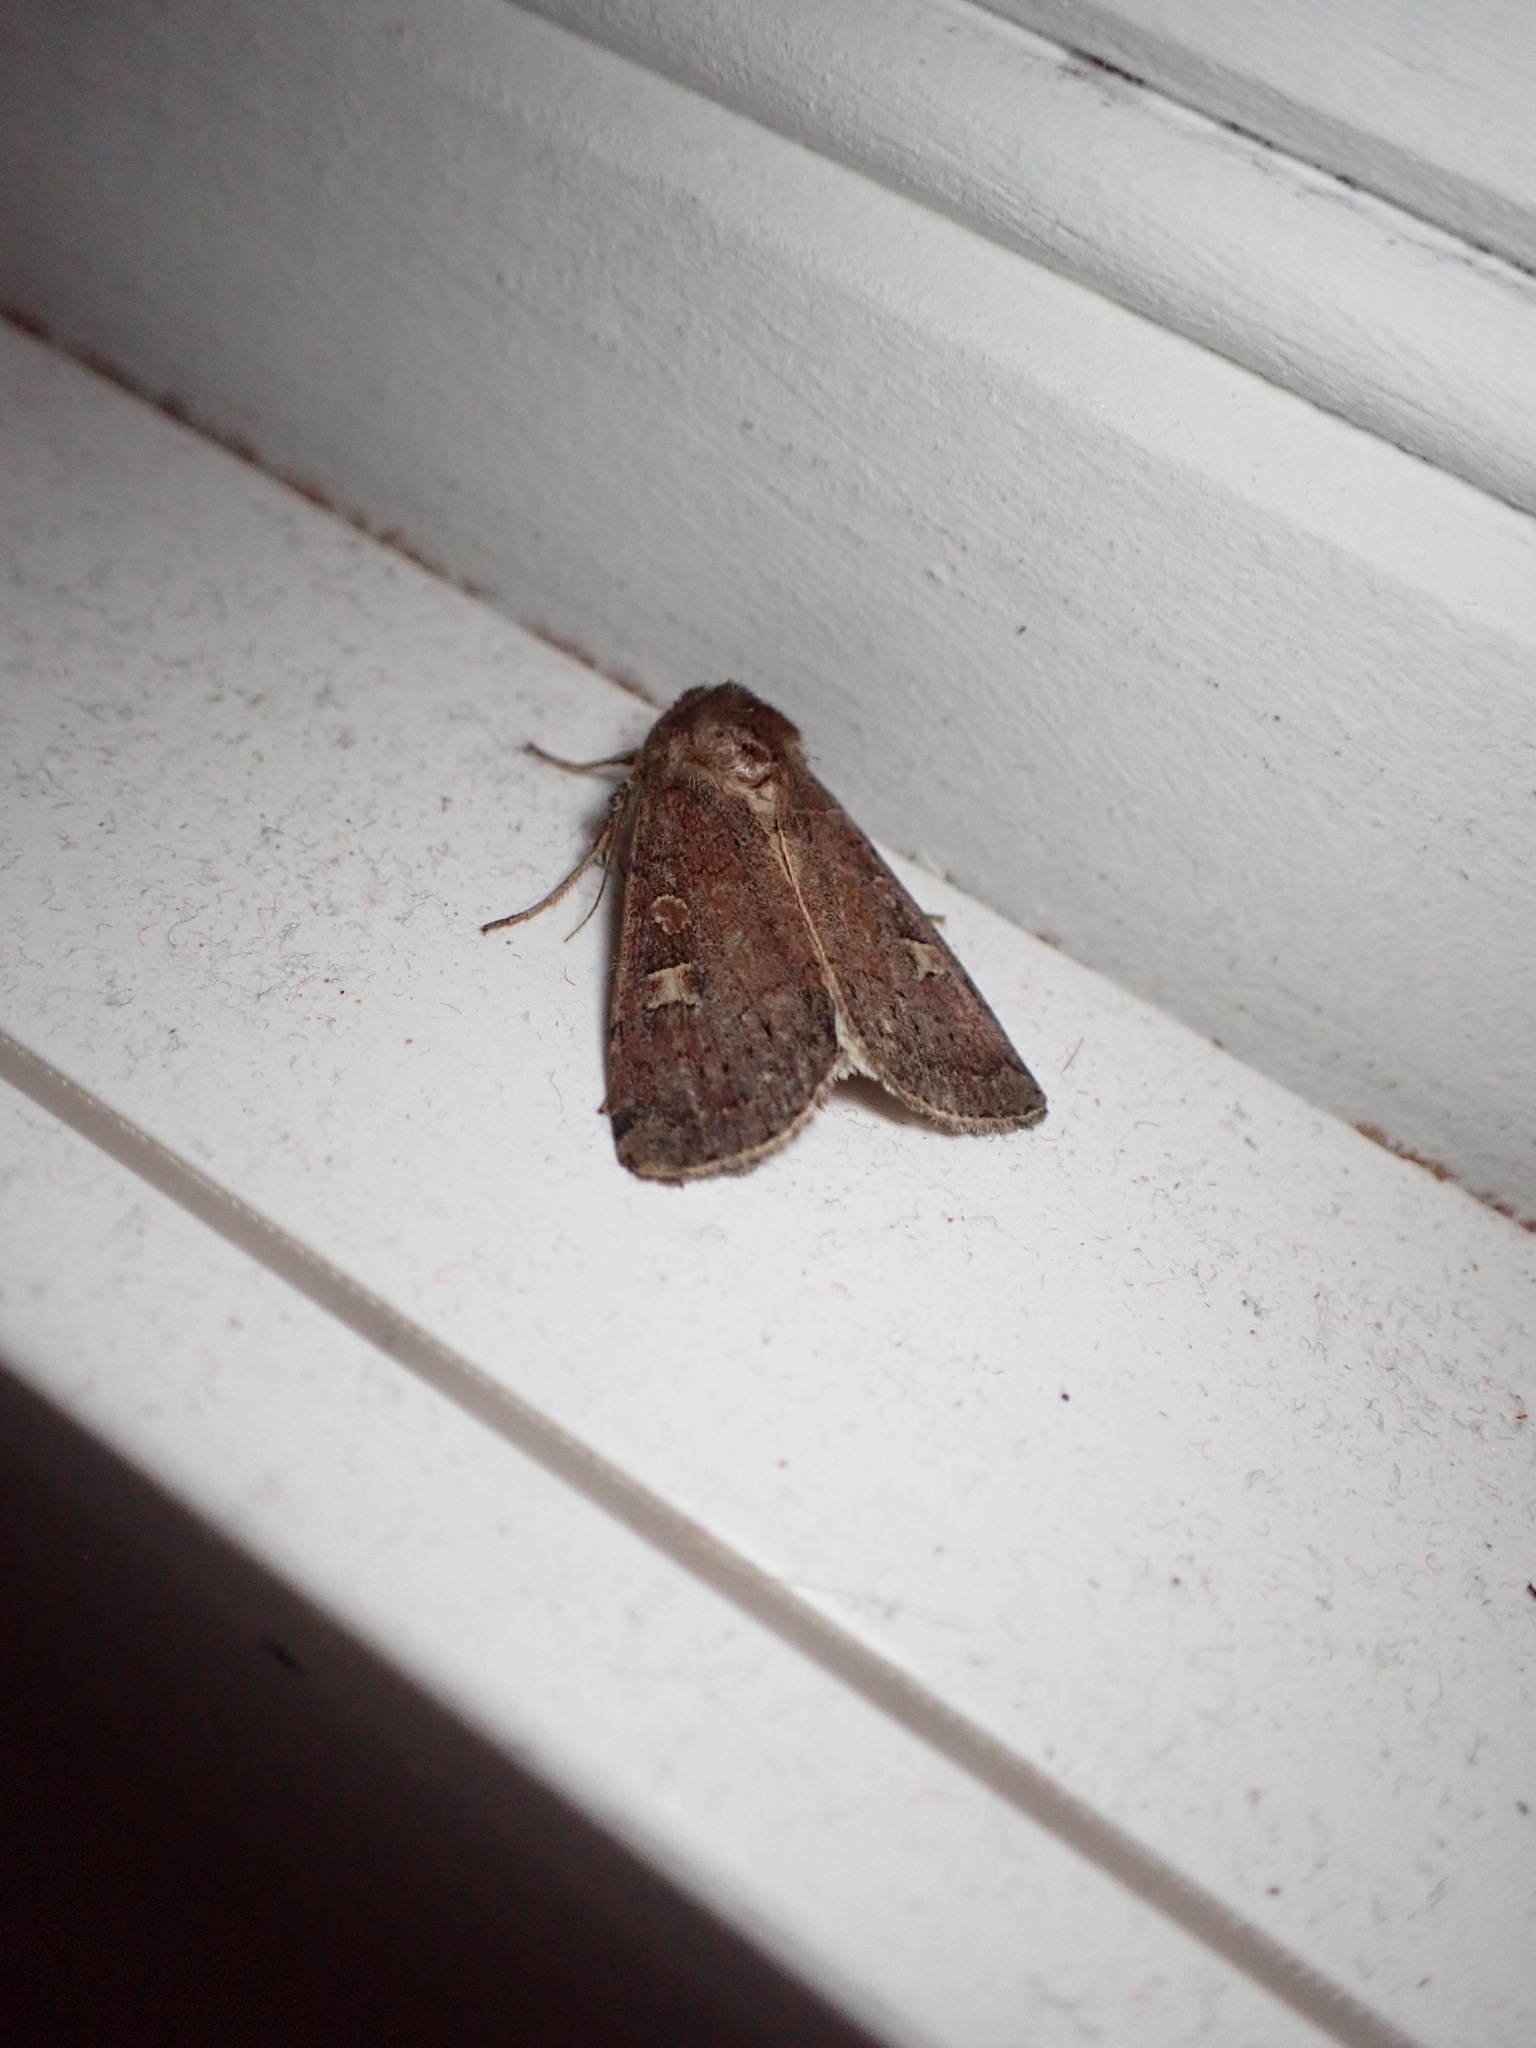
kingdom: Animalia
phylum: Arthropoda
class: Insecta
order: Lepidoptera
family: Noctuidae
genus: Xestia
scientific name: Xestia xanthographa
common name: Square-spot rustic
